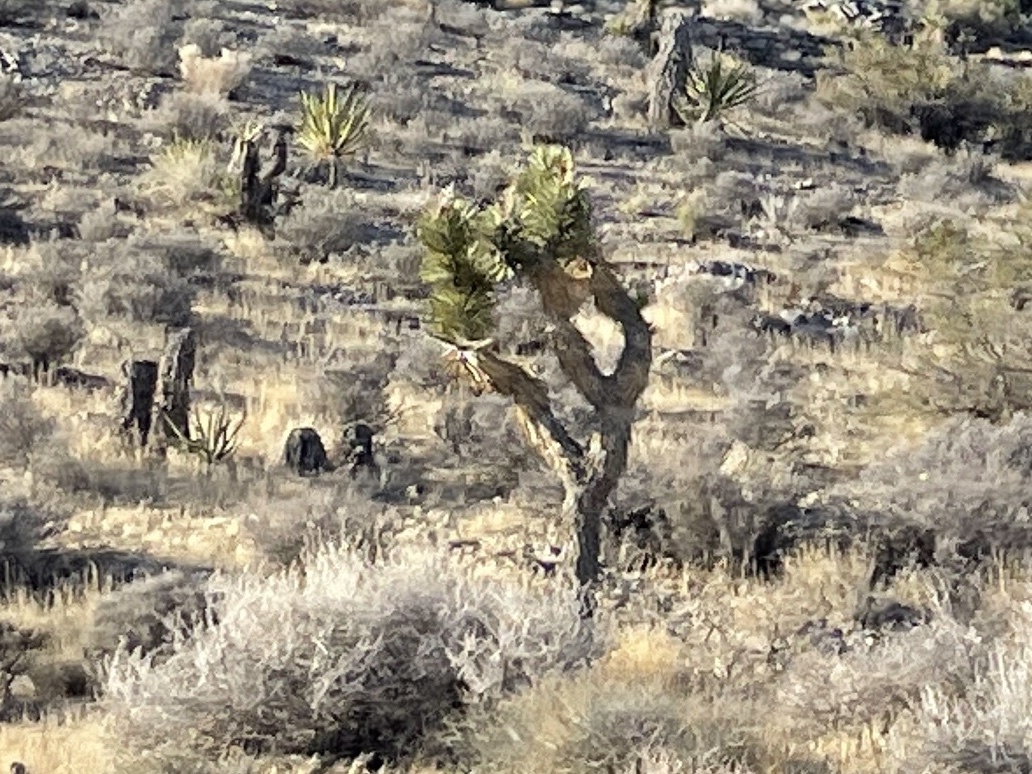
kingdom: Plantae
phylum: Tracheophyta
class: Liliopsida
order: Asparagales
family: Asparagaceae
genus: Yucca
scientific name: Yucca brevifolia
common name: Joshua tree
